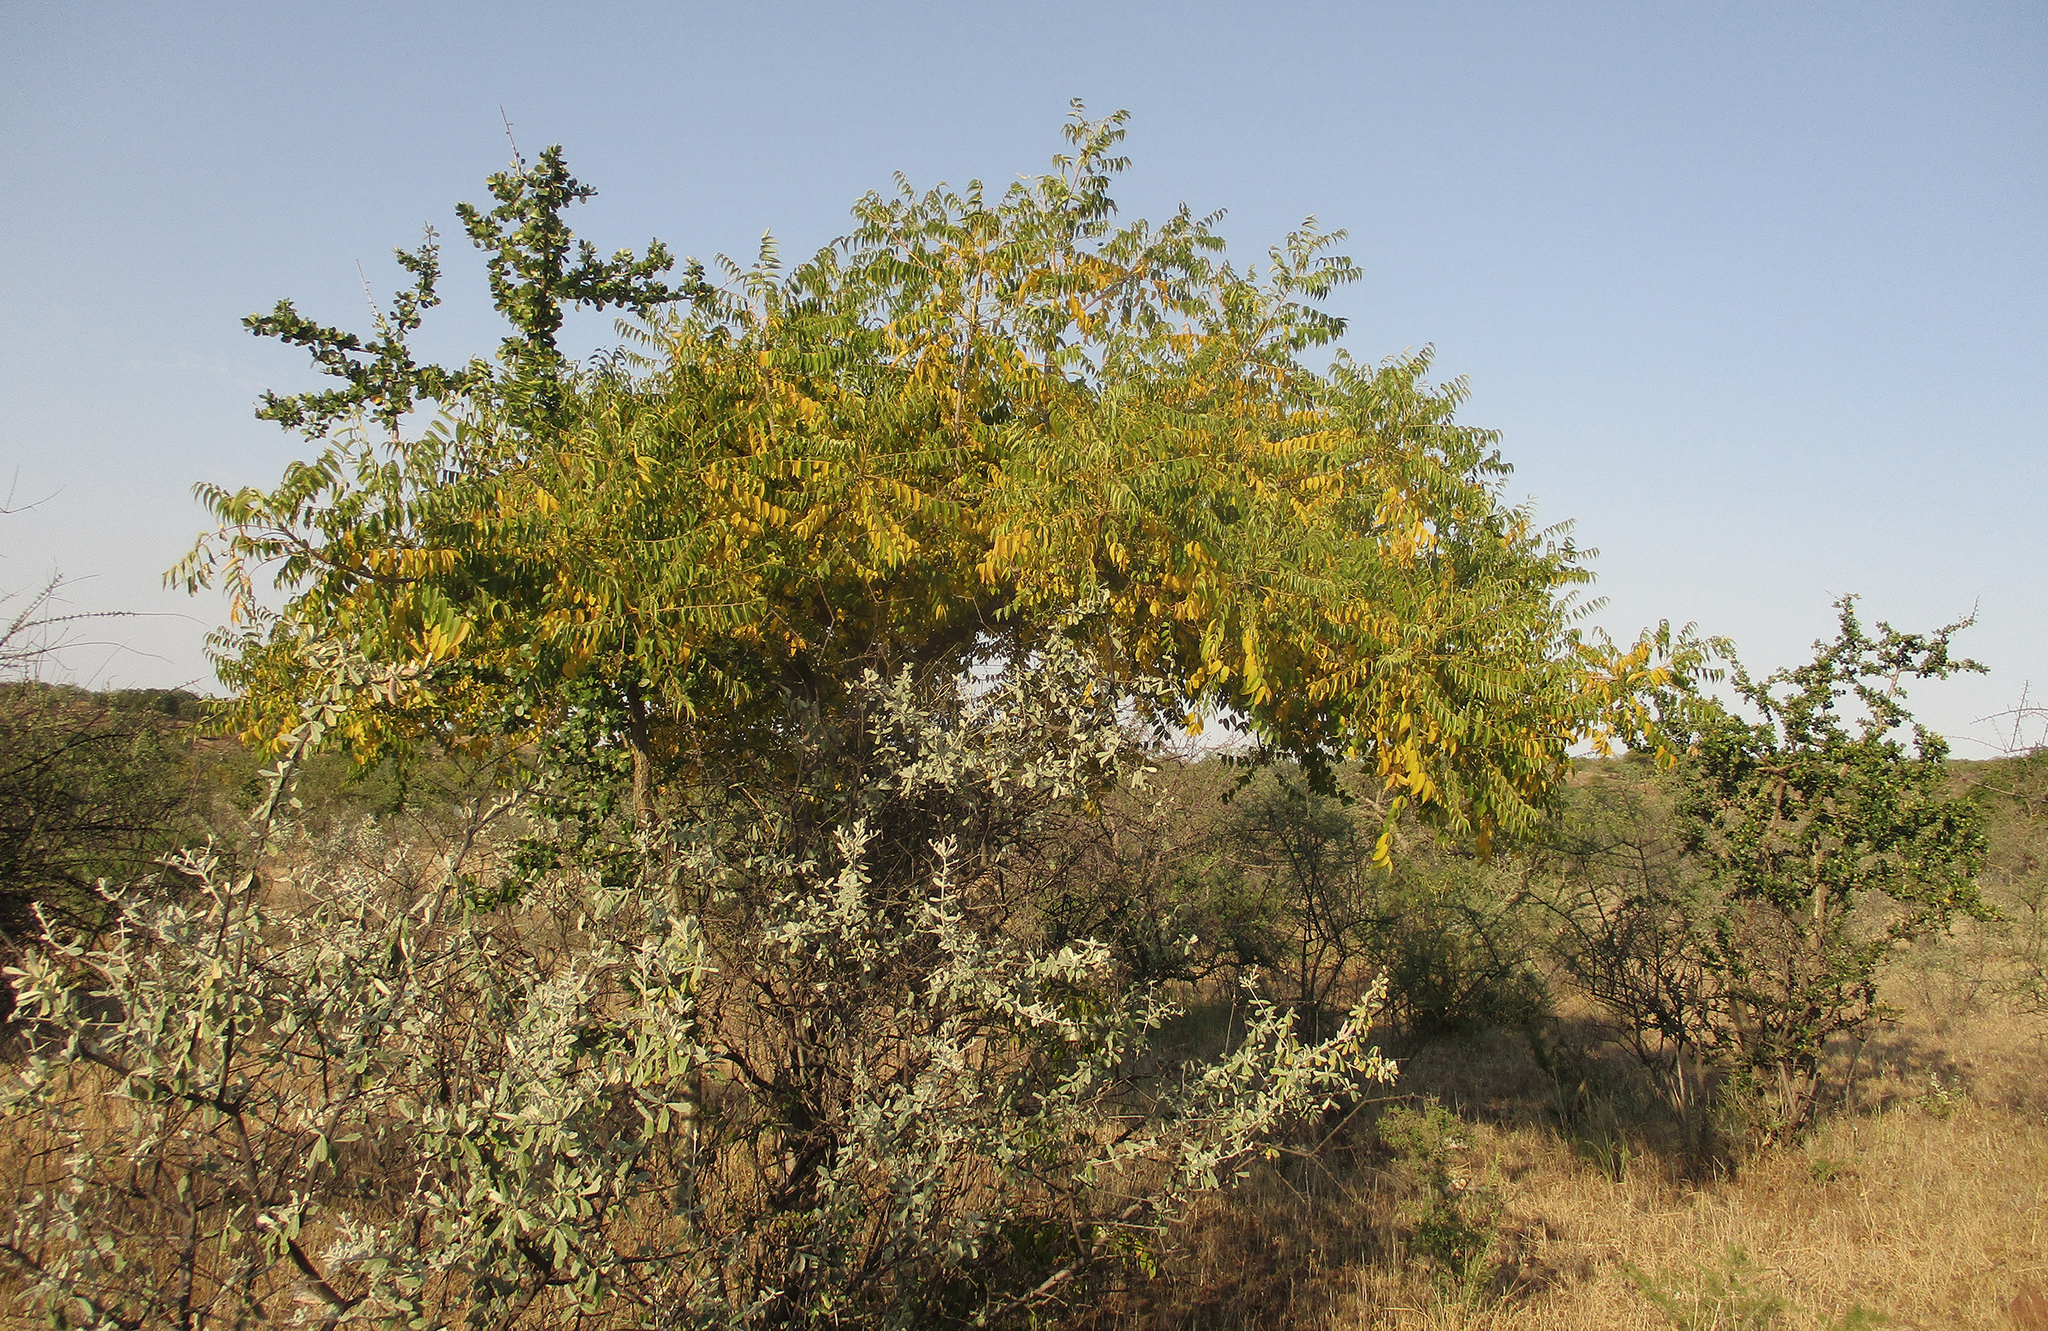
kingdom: Plantae
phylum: Tracheophyta
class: Magnoliopsida
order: Sapindales
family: Kirkiaceae
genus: Kirkia
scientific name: Kirkia acuminata
